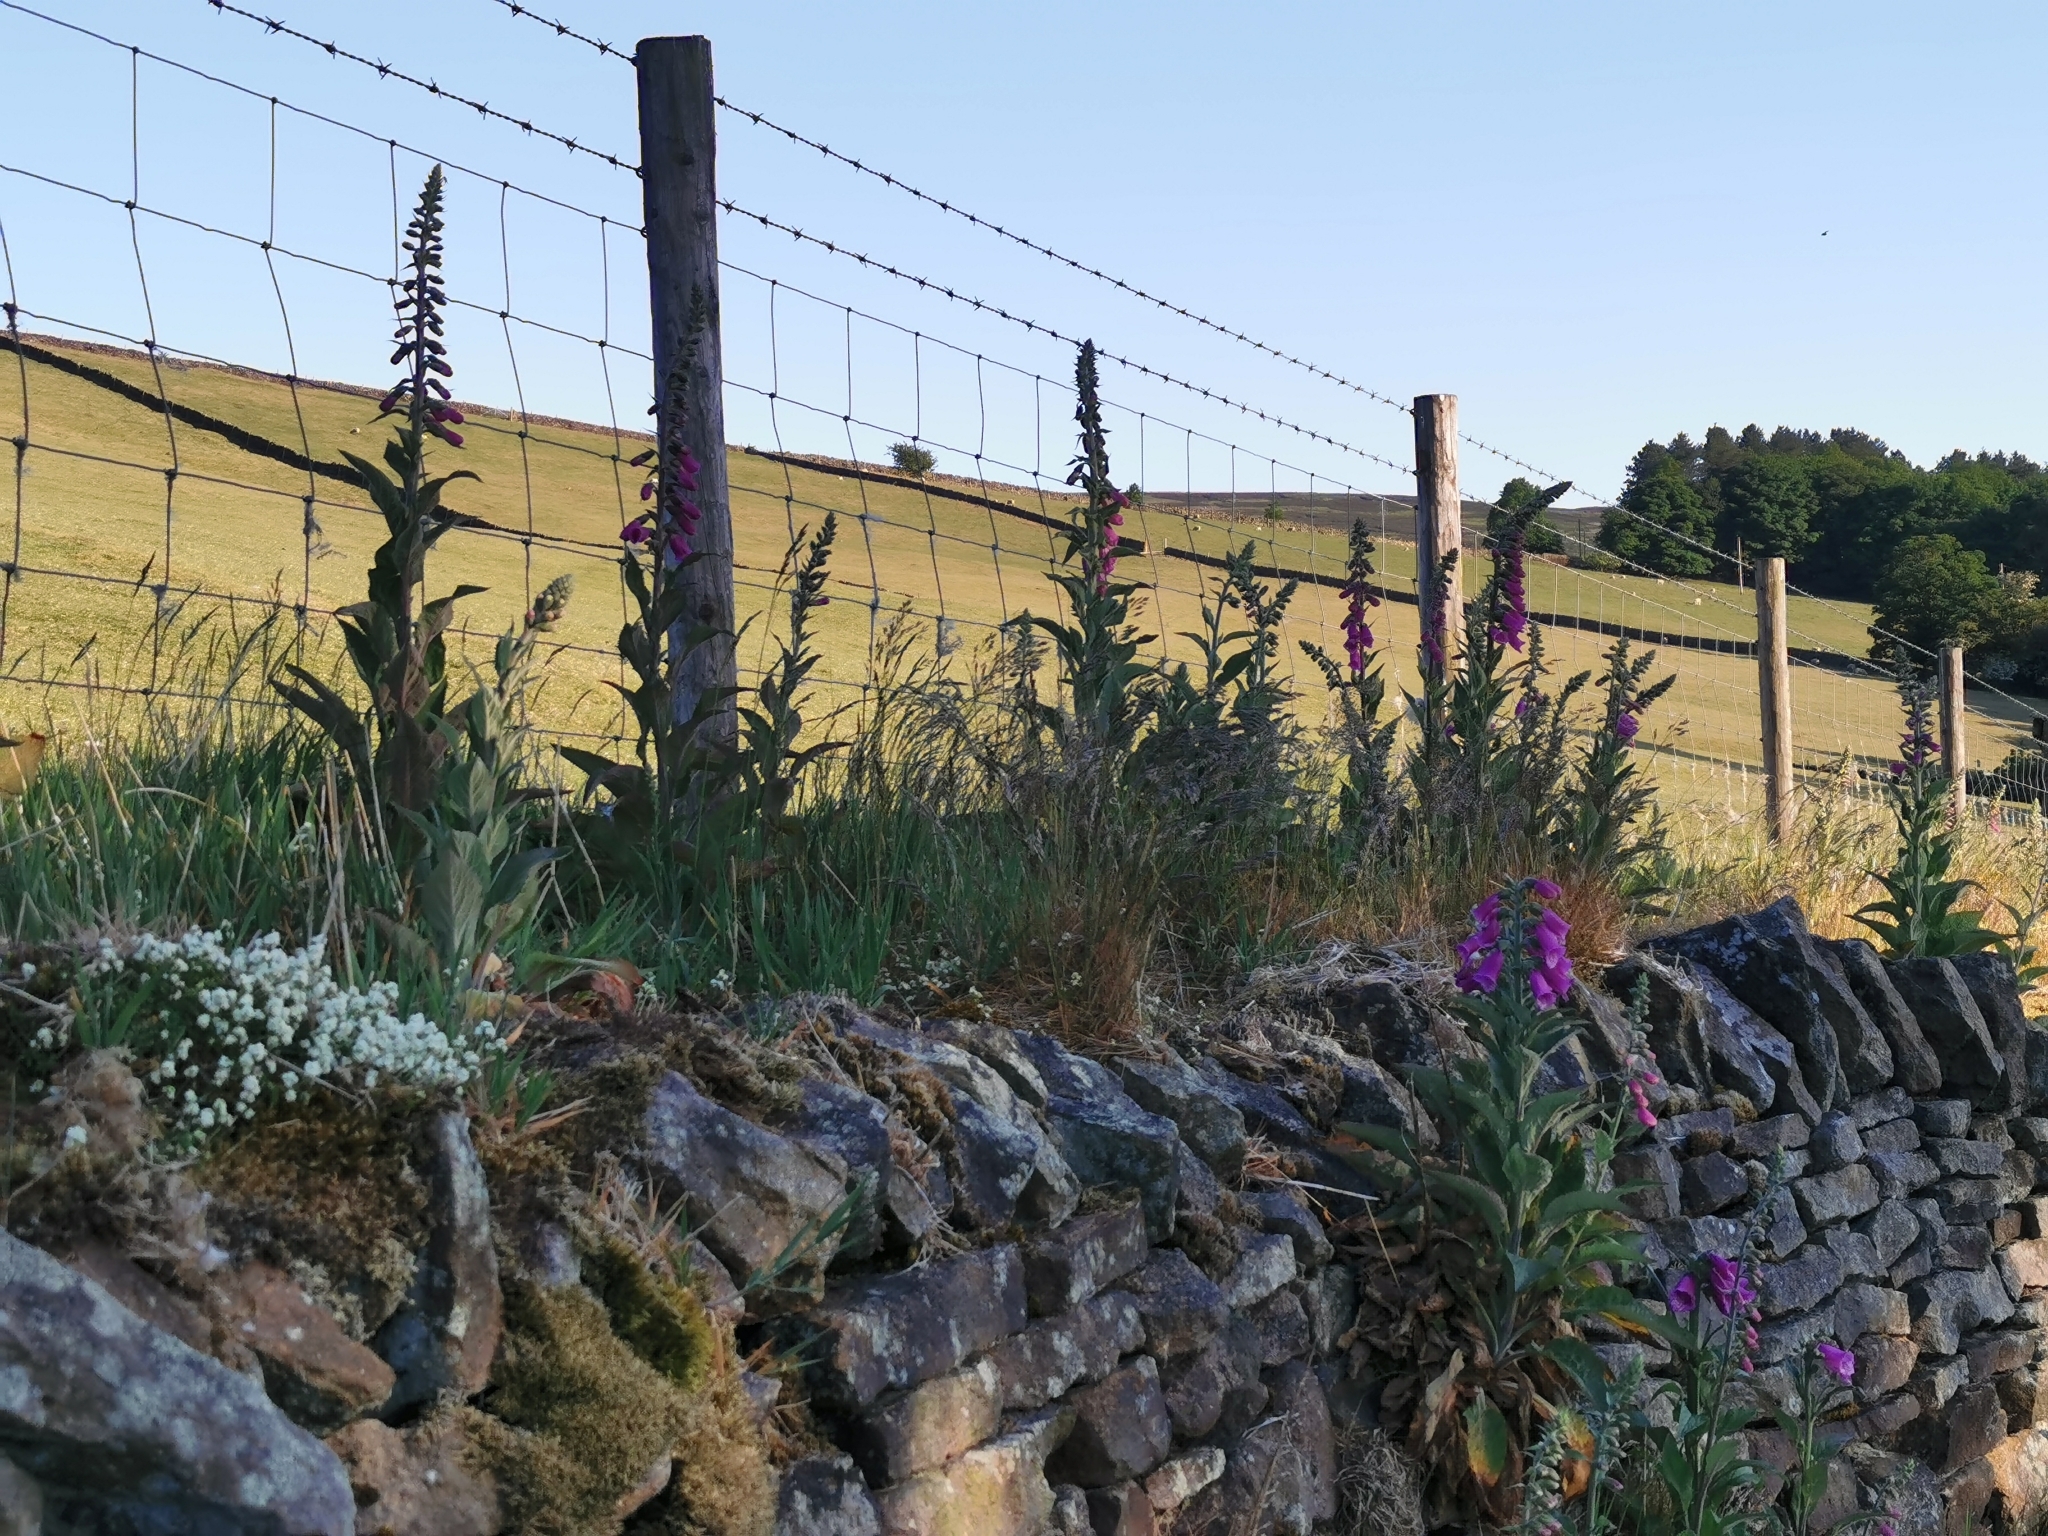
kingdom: Plantae
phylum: Tracheophyta
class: Magnoliopsida
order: Lamiales
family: Plantaginaceae
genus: Digitalis
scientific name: Digitalis purpurea
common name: Foxglove
